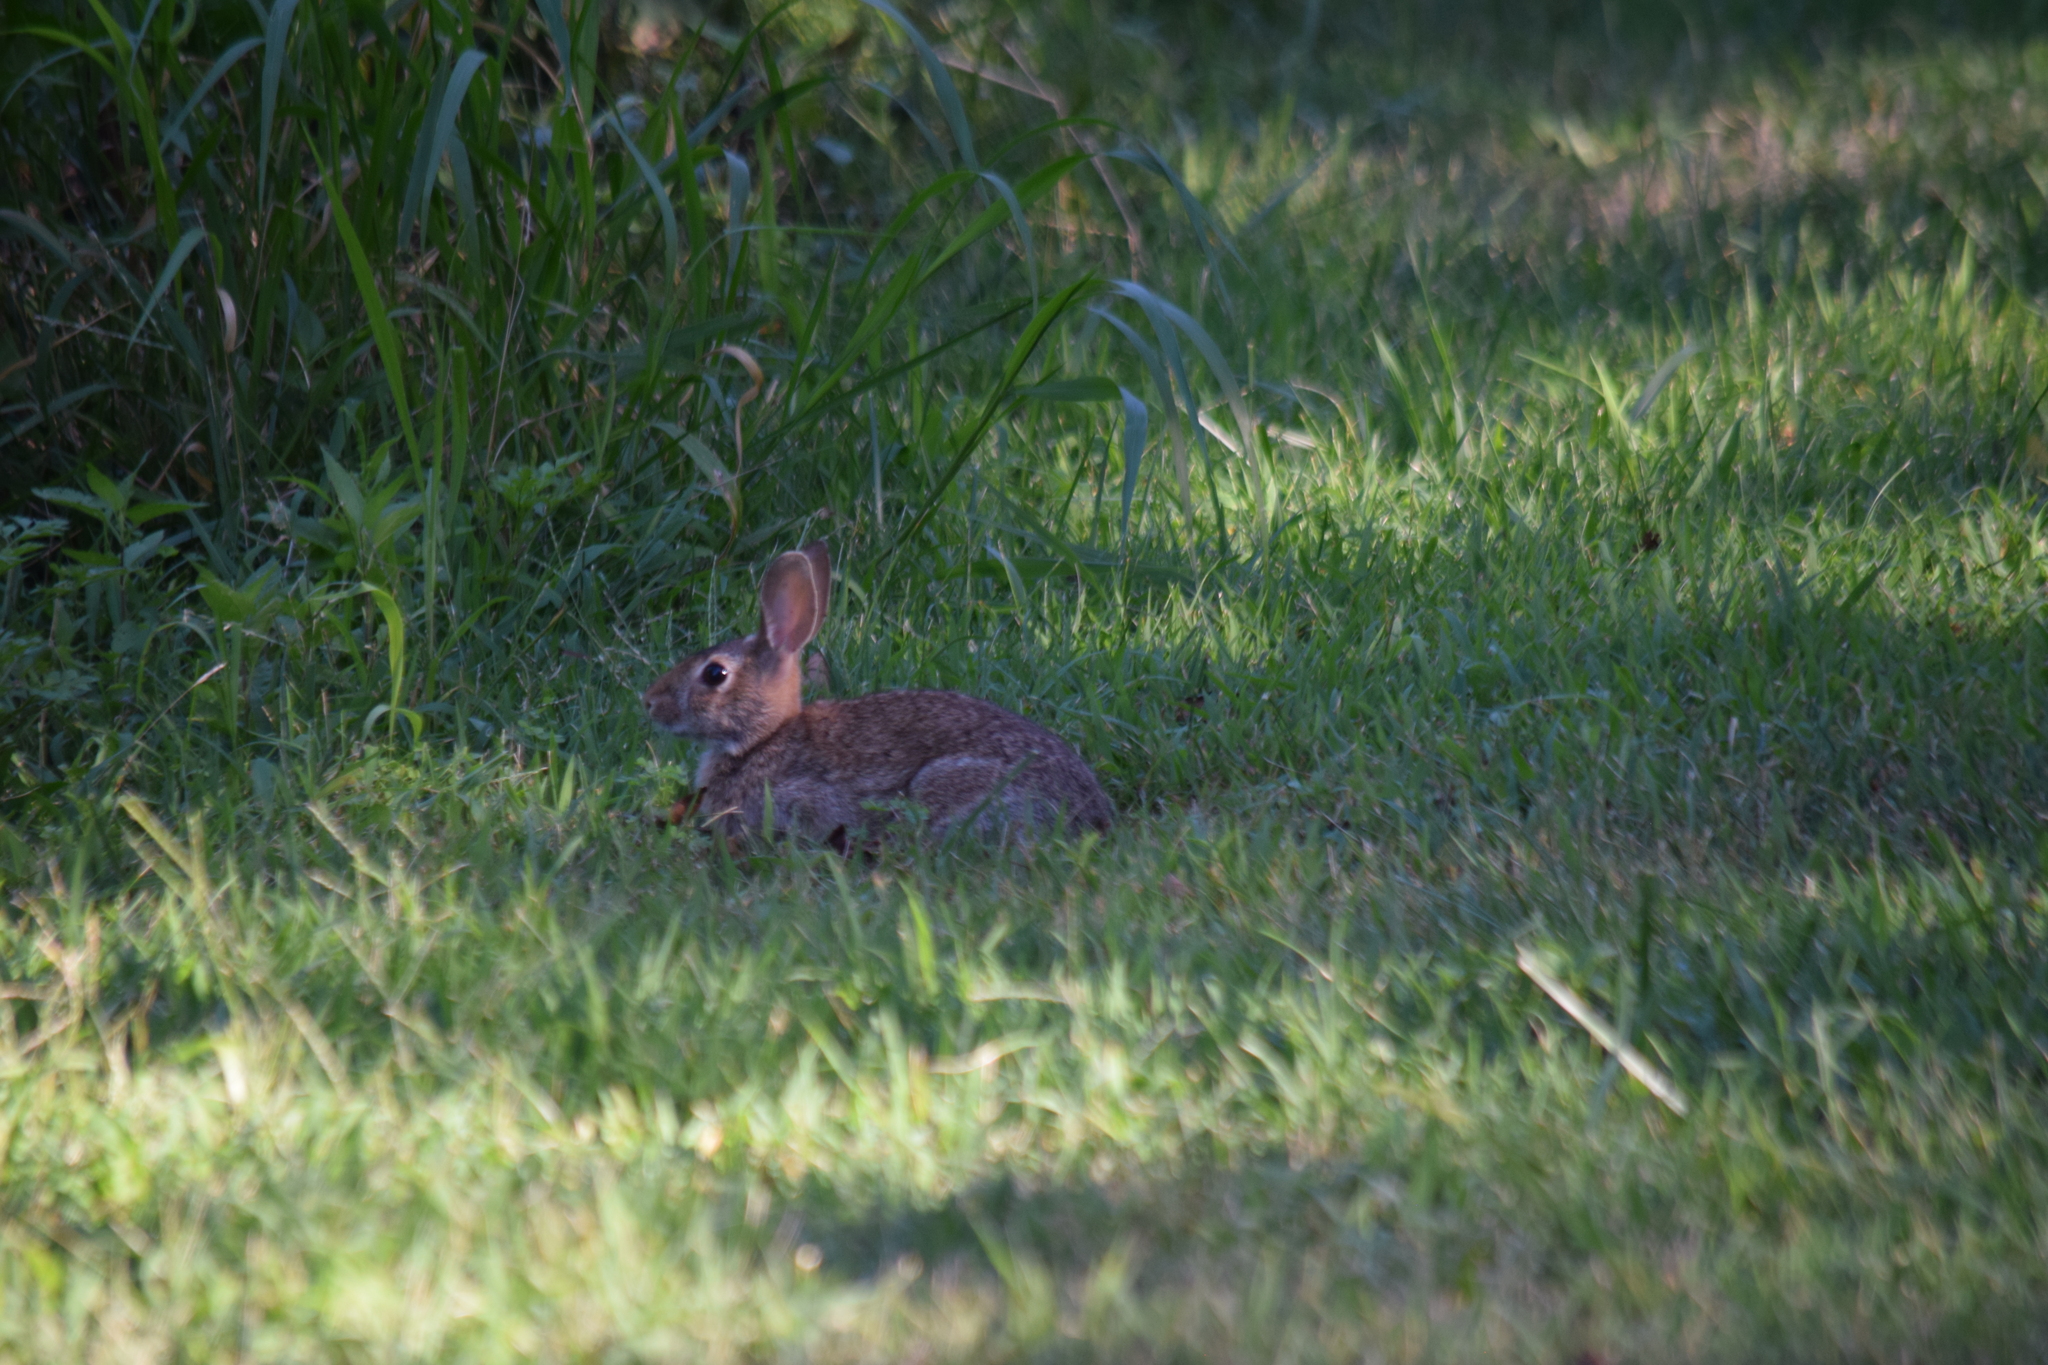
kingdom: Animalia
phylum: Chordata
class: Mammalia
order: Lagomorpha
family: Leporidae
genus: Sylvilagus
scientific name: Sylvilagus floridanus
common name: Eastern cottontail
